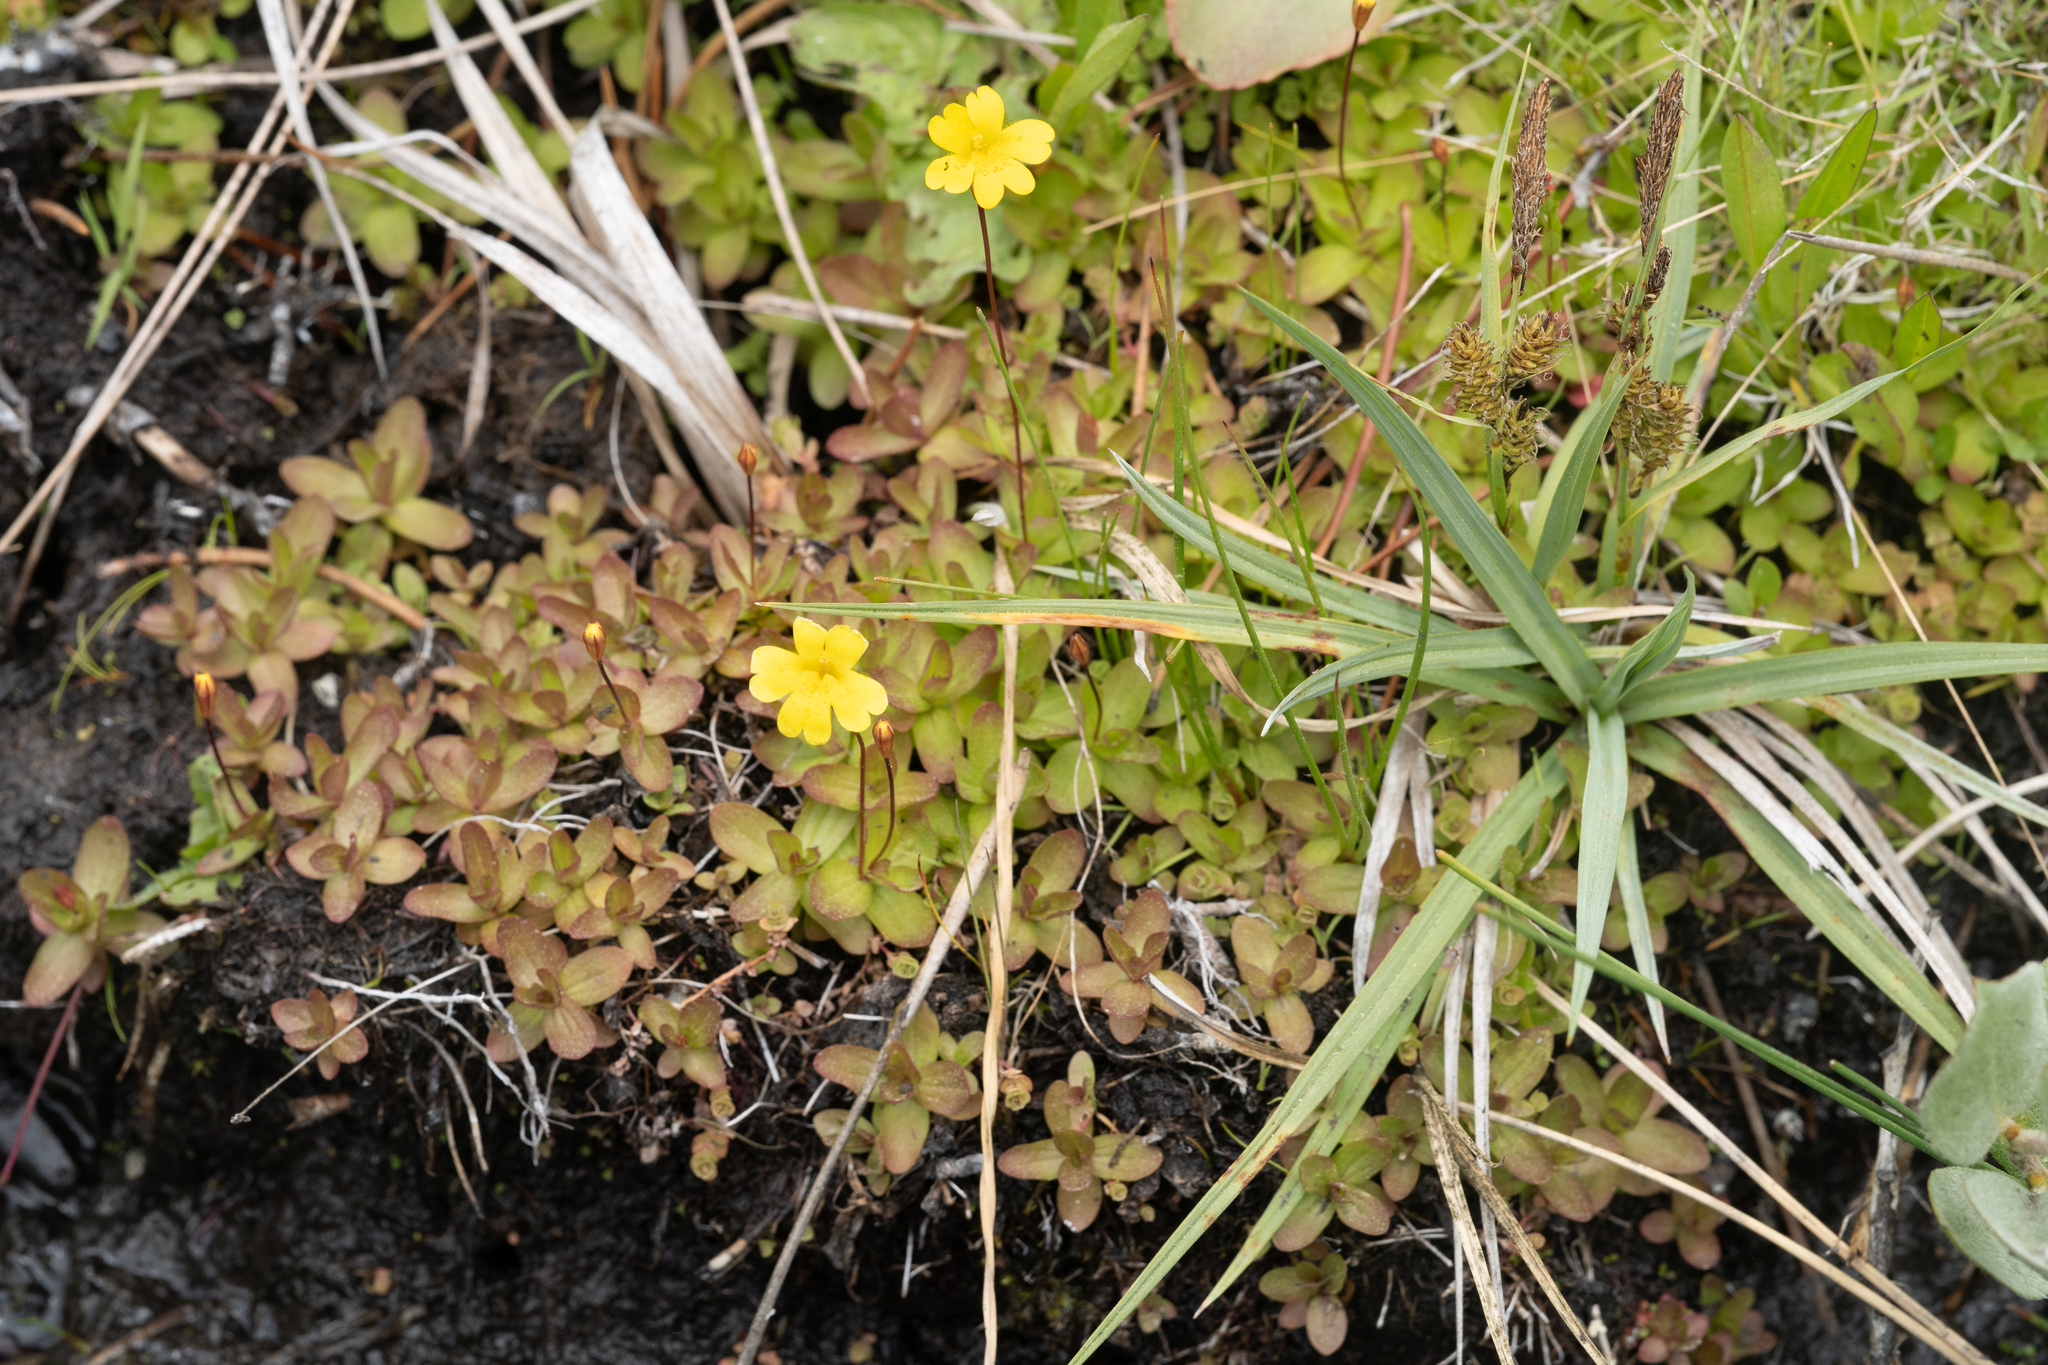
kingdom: Plantae
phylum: Tracheophyta
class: Magnoliopsida
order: Lamiales
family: Phrymaceae
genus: Erythranthe
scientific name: Erythranthe primuloides
